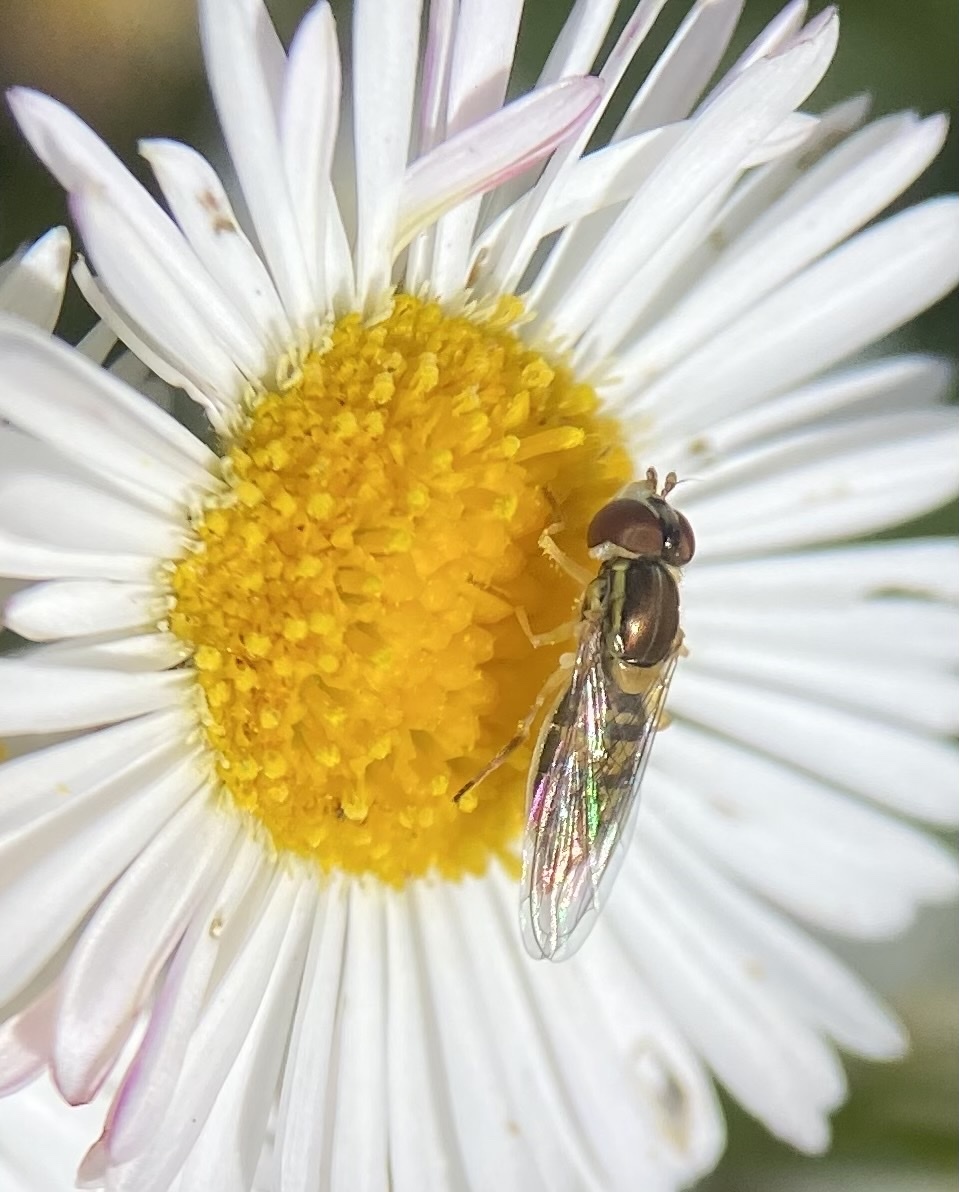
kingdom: Animalia
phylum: Arthropoda
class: Insecta
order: Diptera
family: Syrphidae
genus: Toxomerus
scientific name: Toxomerus marginatus
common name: Syrphid fly
